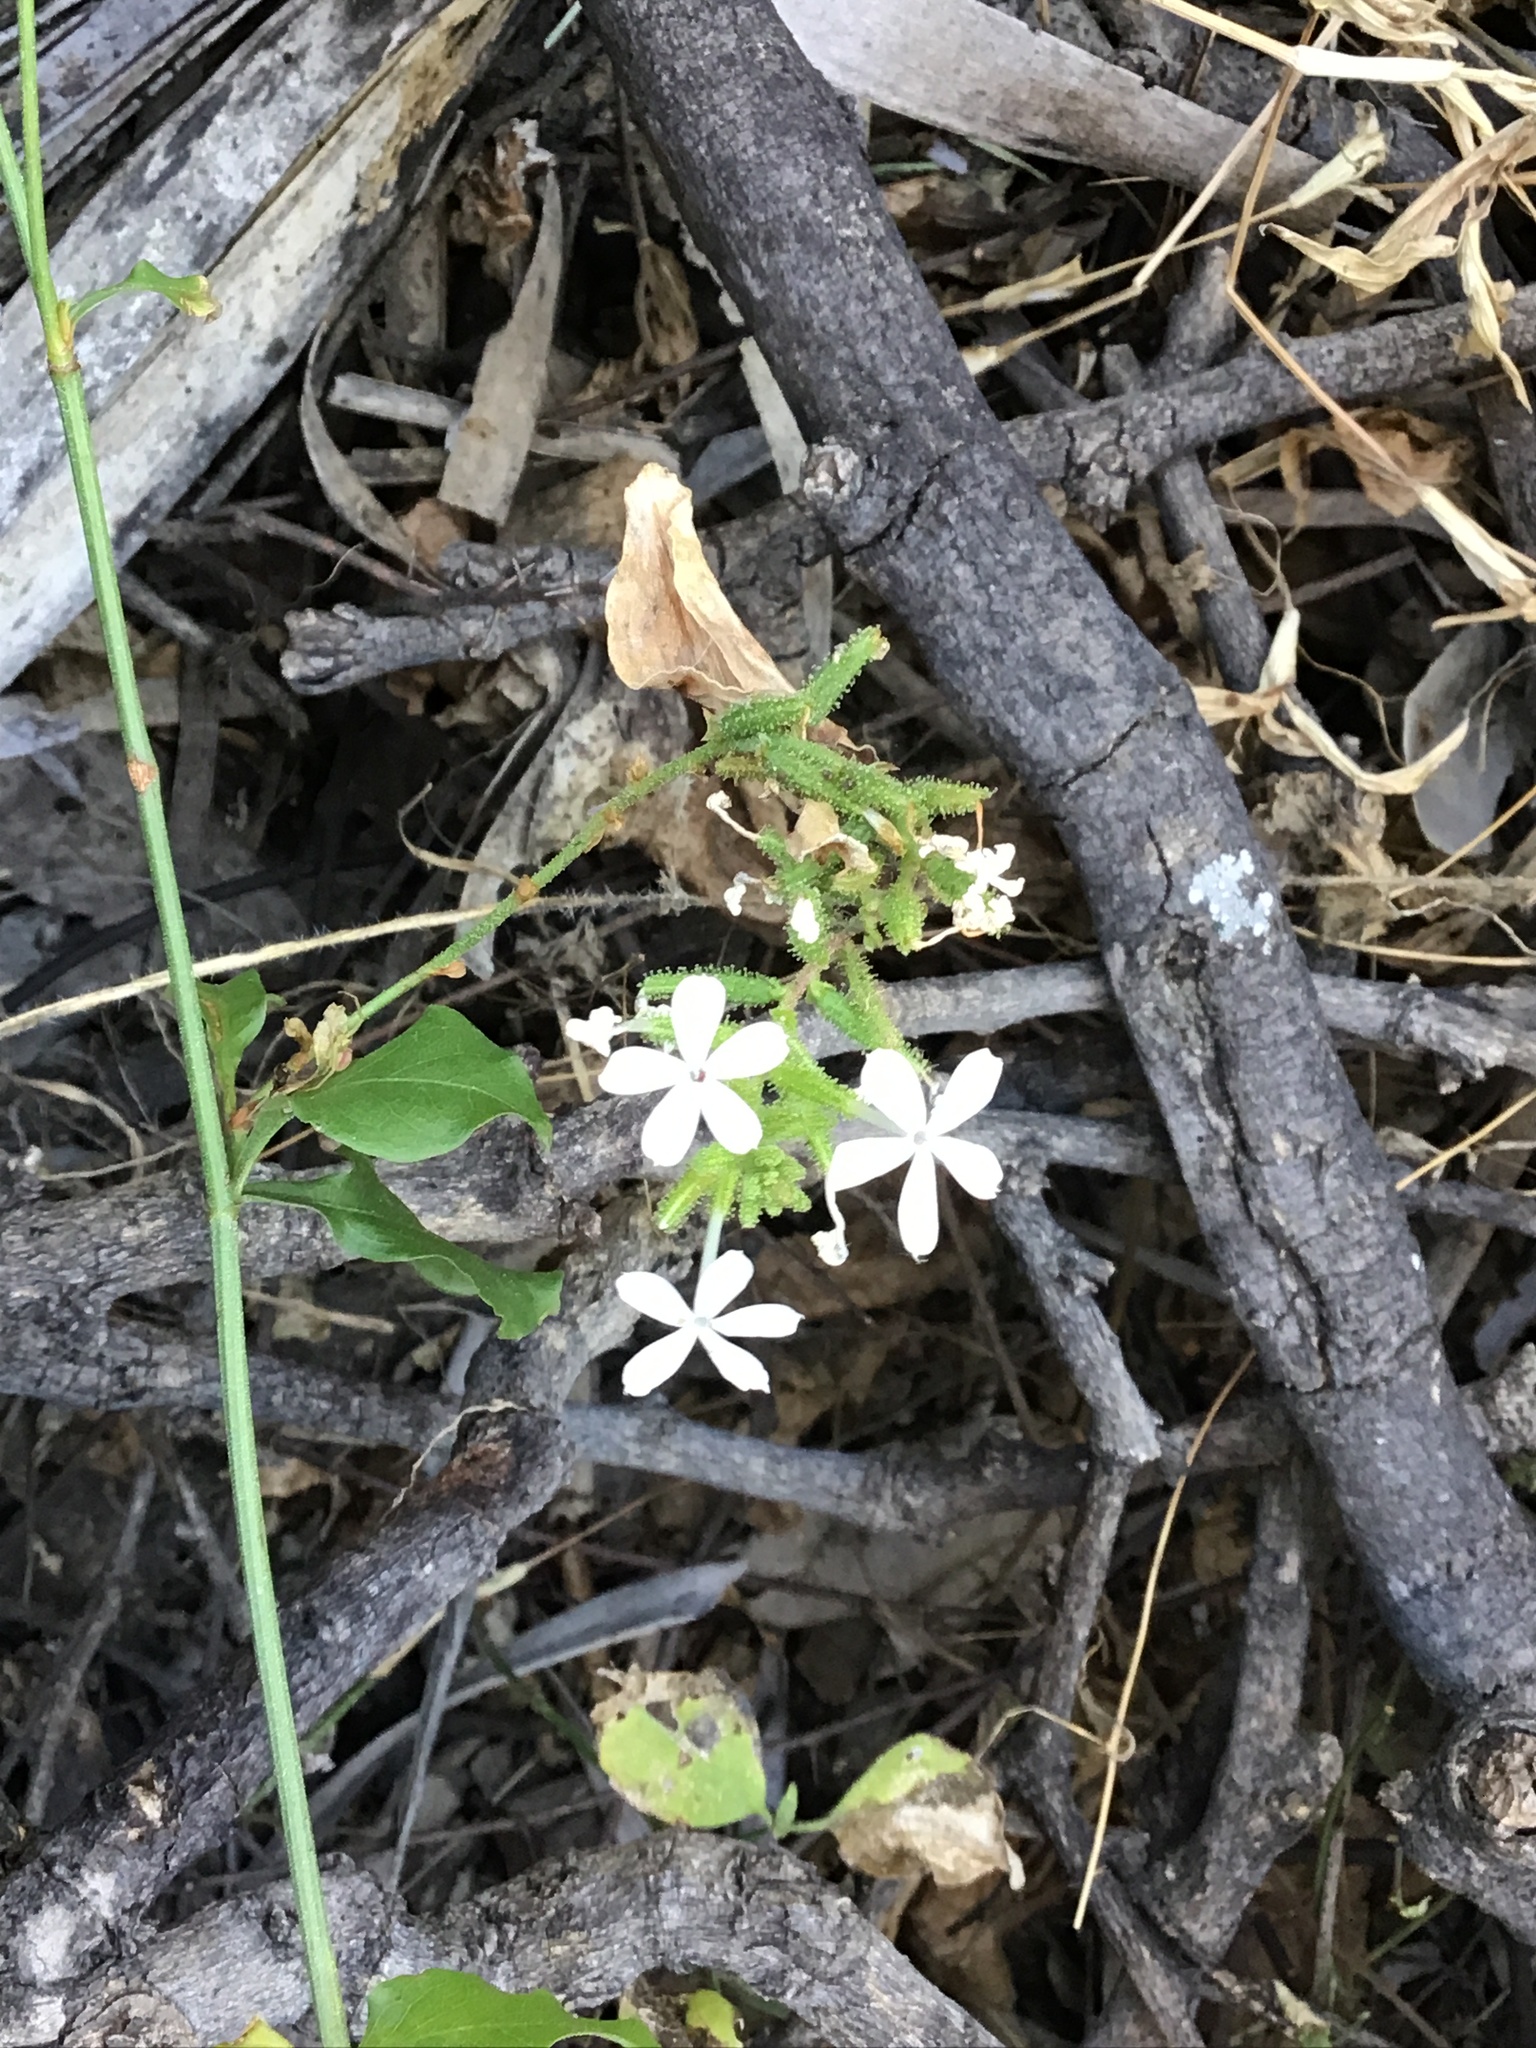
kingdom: Plantae
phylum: Tracheophyta
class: Magnoliopsida
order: Caryophyllales
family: Plumbaginaceae
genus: Plumbago
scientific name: Plumbago zeylanica
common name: Doctorbush
